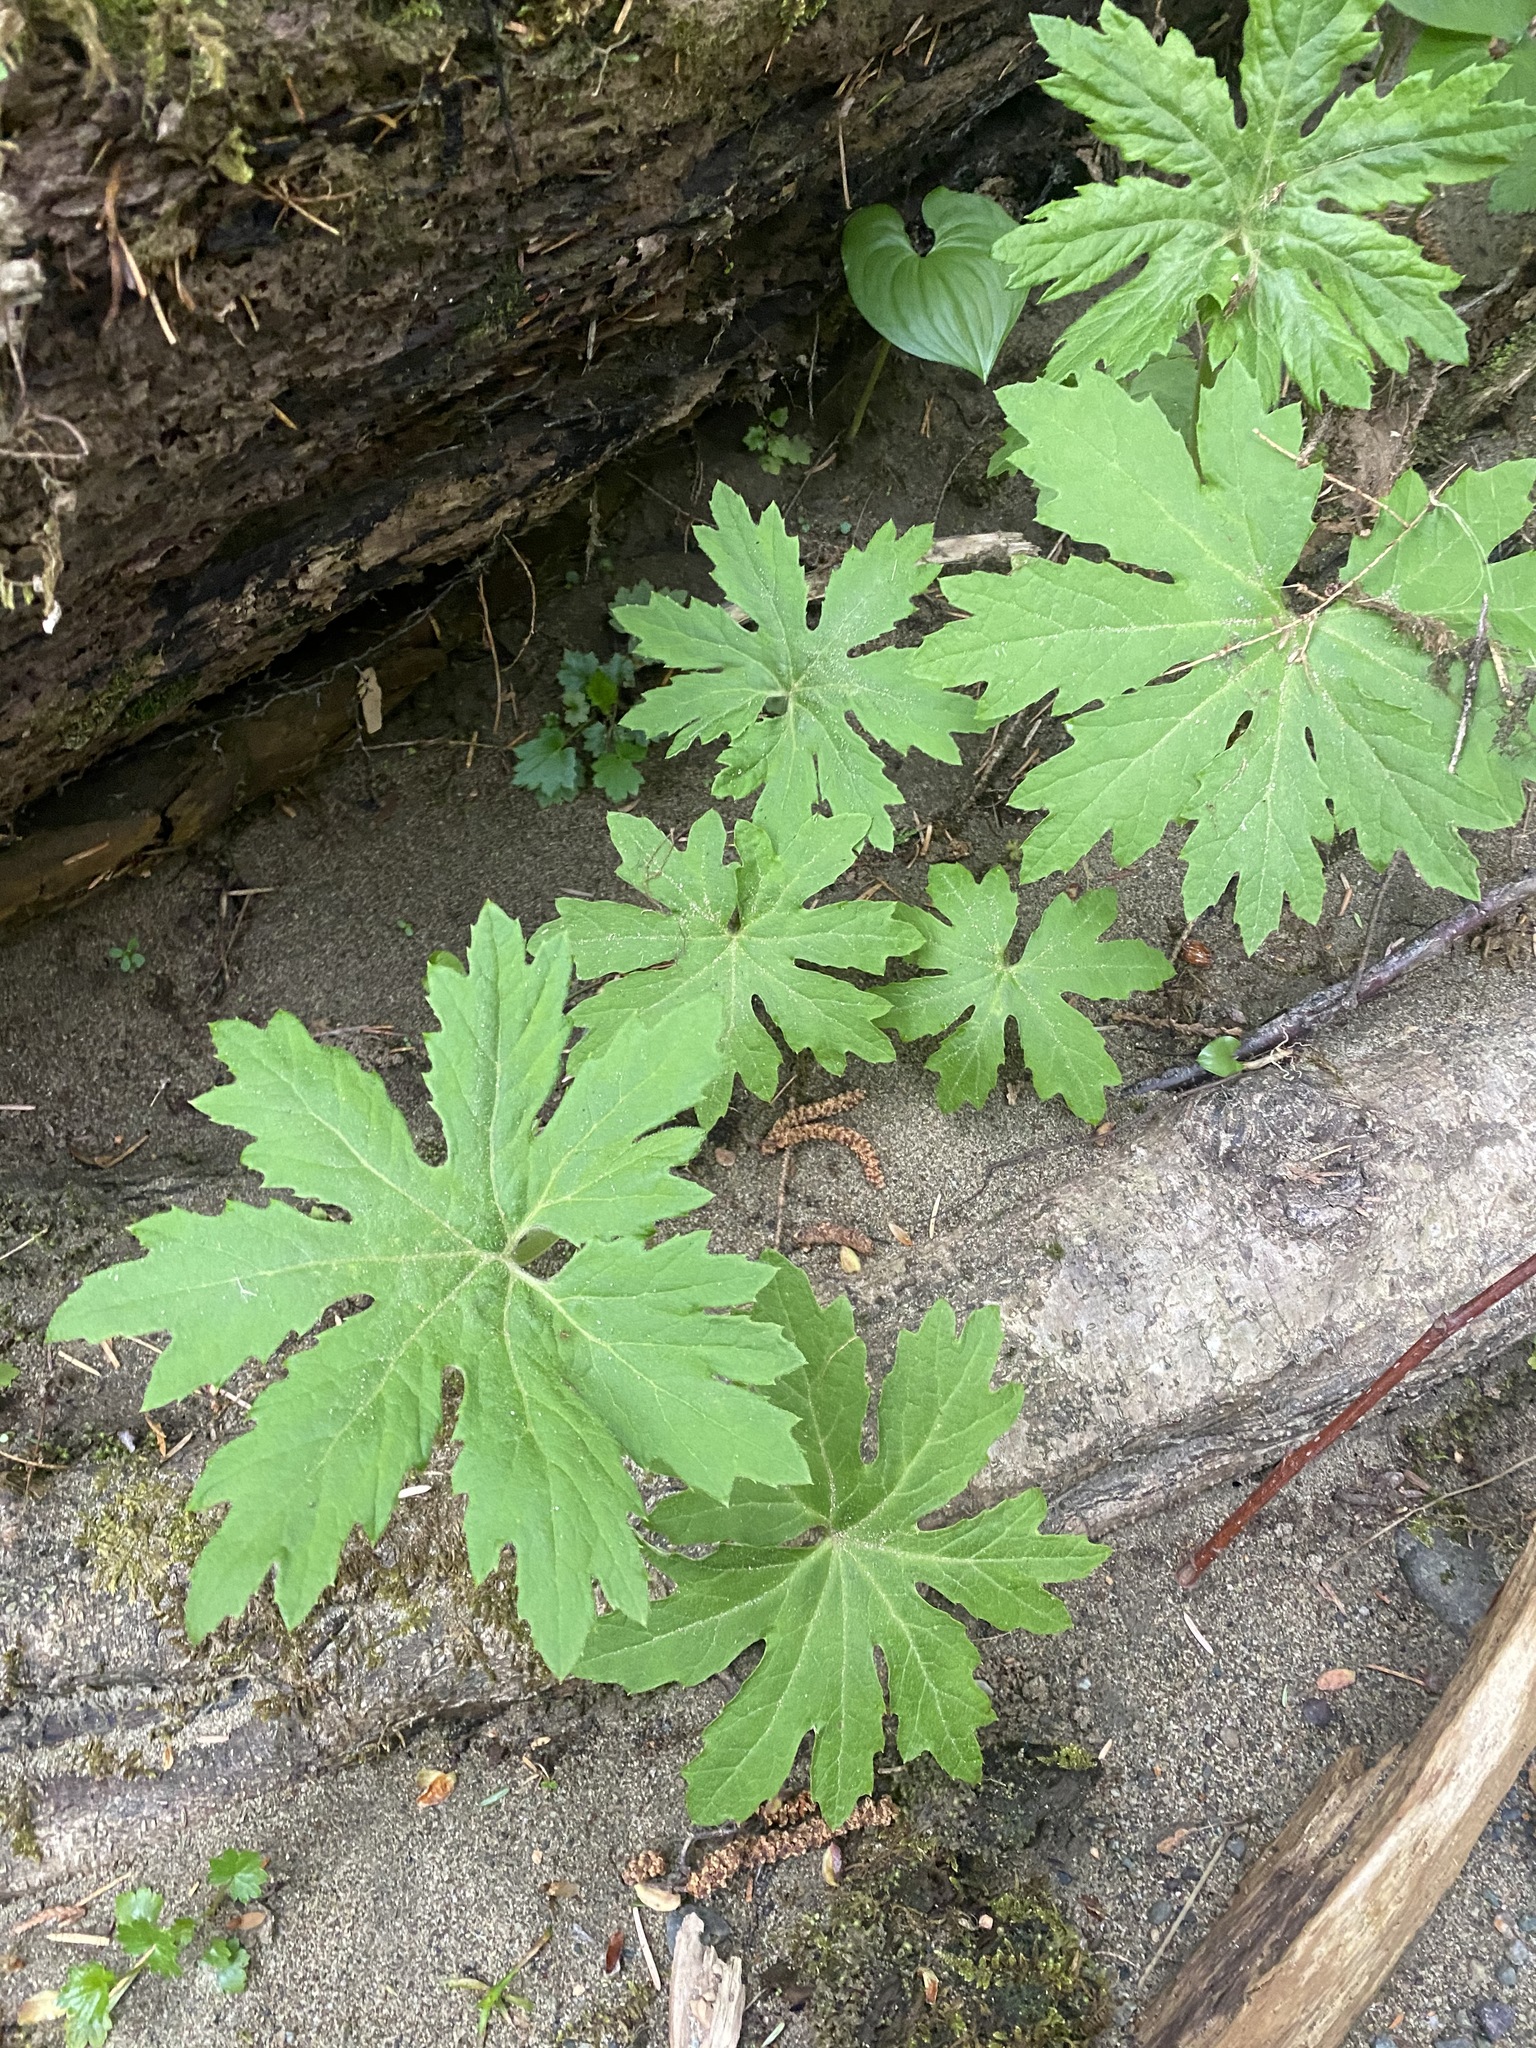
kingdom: Plantae
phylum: Tracheophyta
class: Magnoliopsida
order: Asterales
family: Asteraceae
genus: Petasites
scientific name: Petasites frigidus
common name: Arctic butterbur
